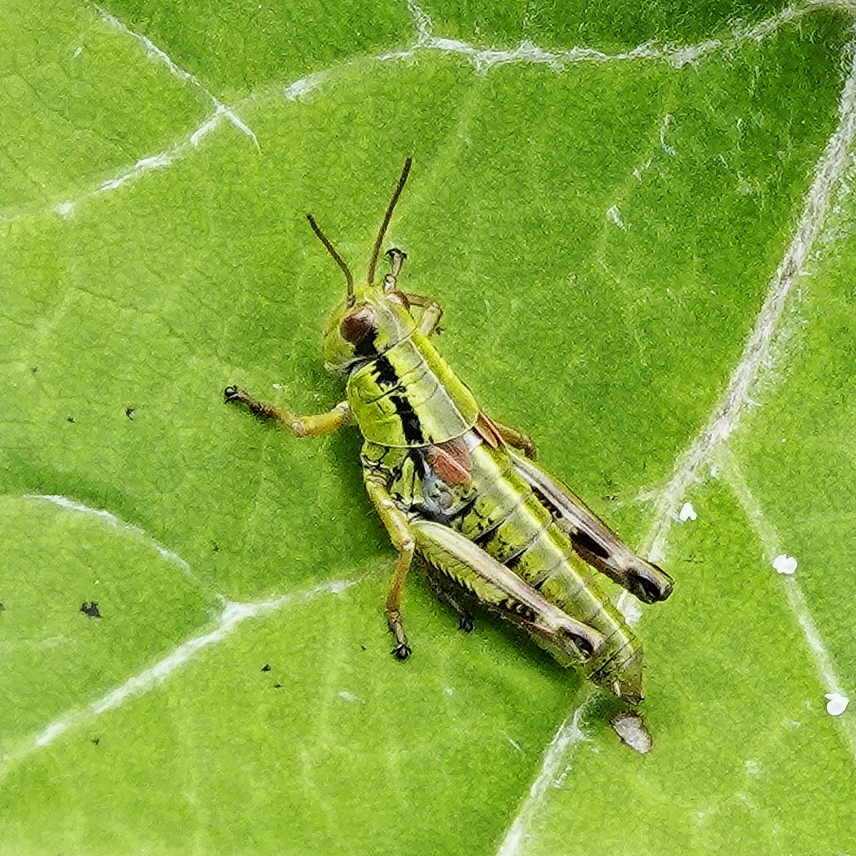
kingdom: Animalia
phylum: Arthropoda
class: Insecta
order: Orthoptera
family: Acrididae
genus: Miramella
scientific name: Miramella alpina
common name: Green mountain grasshopper
